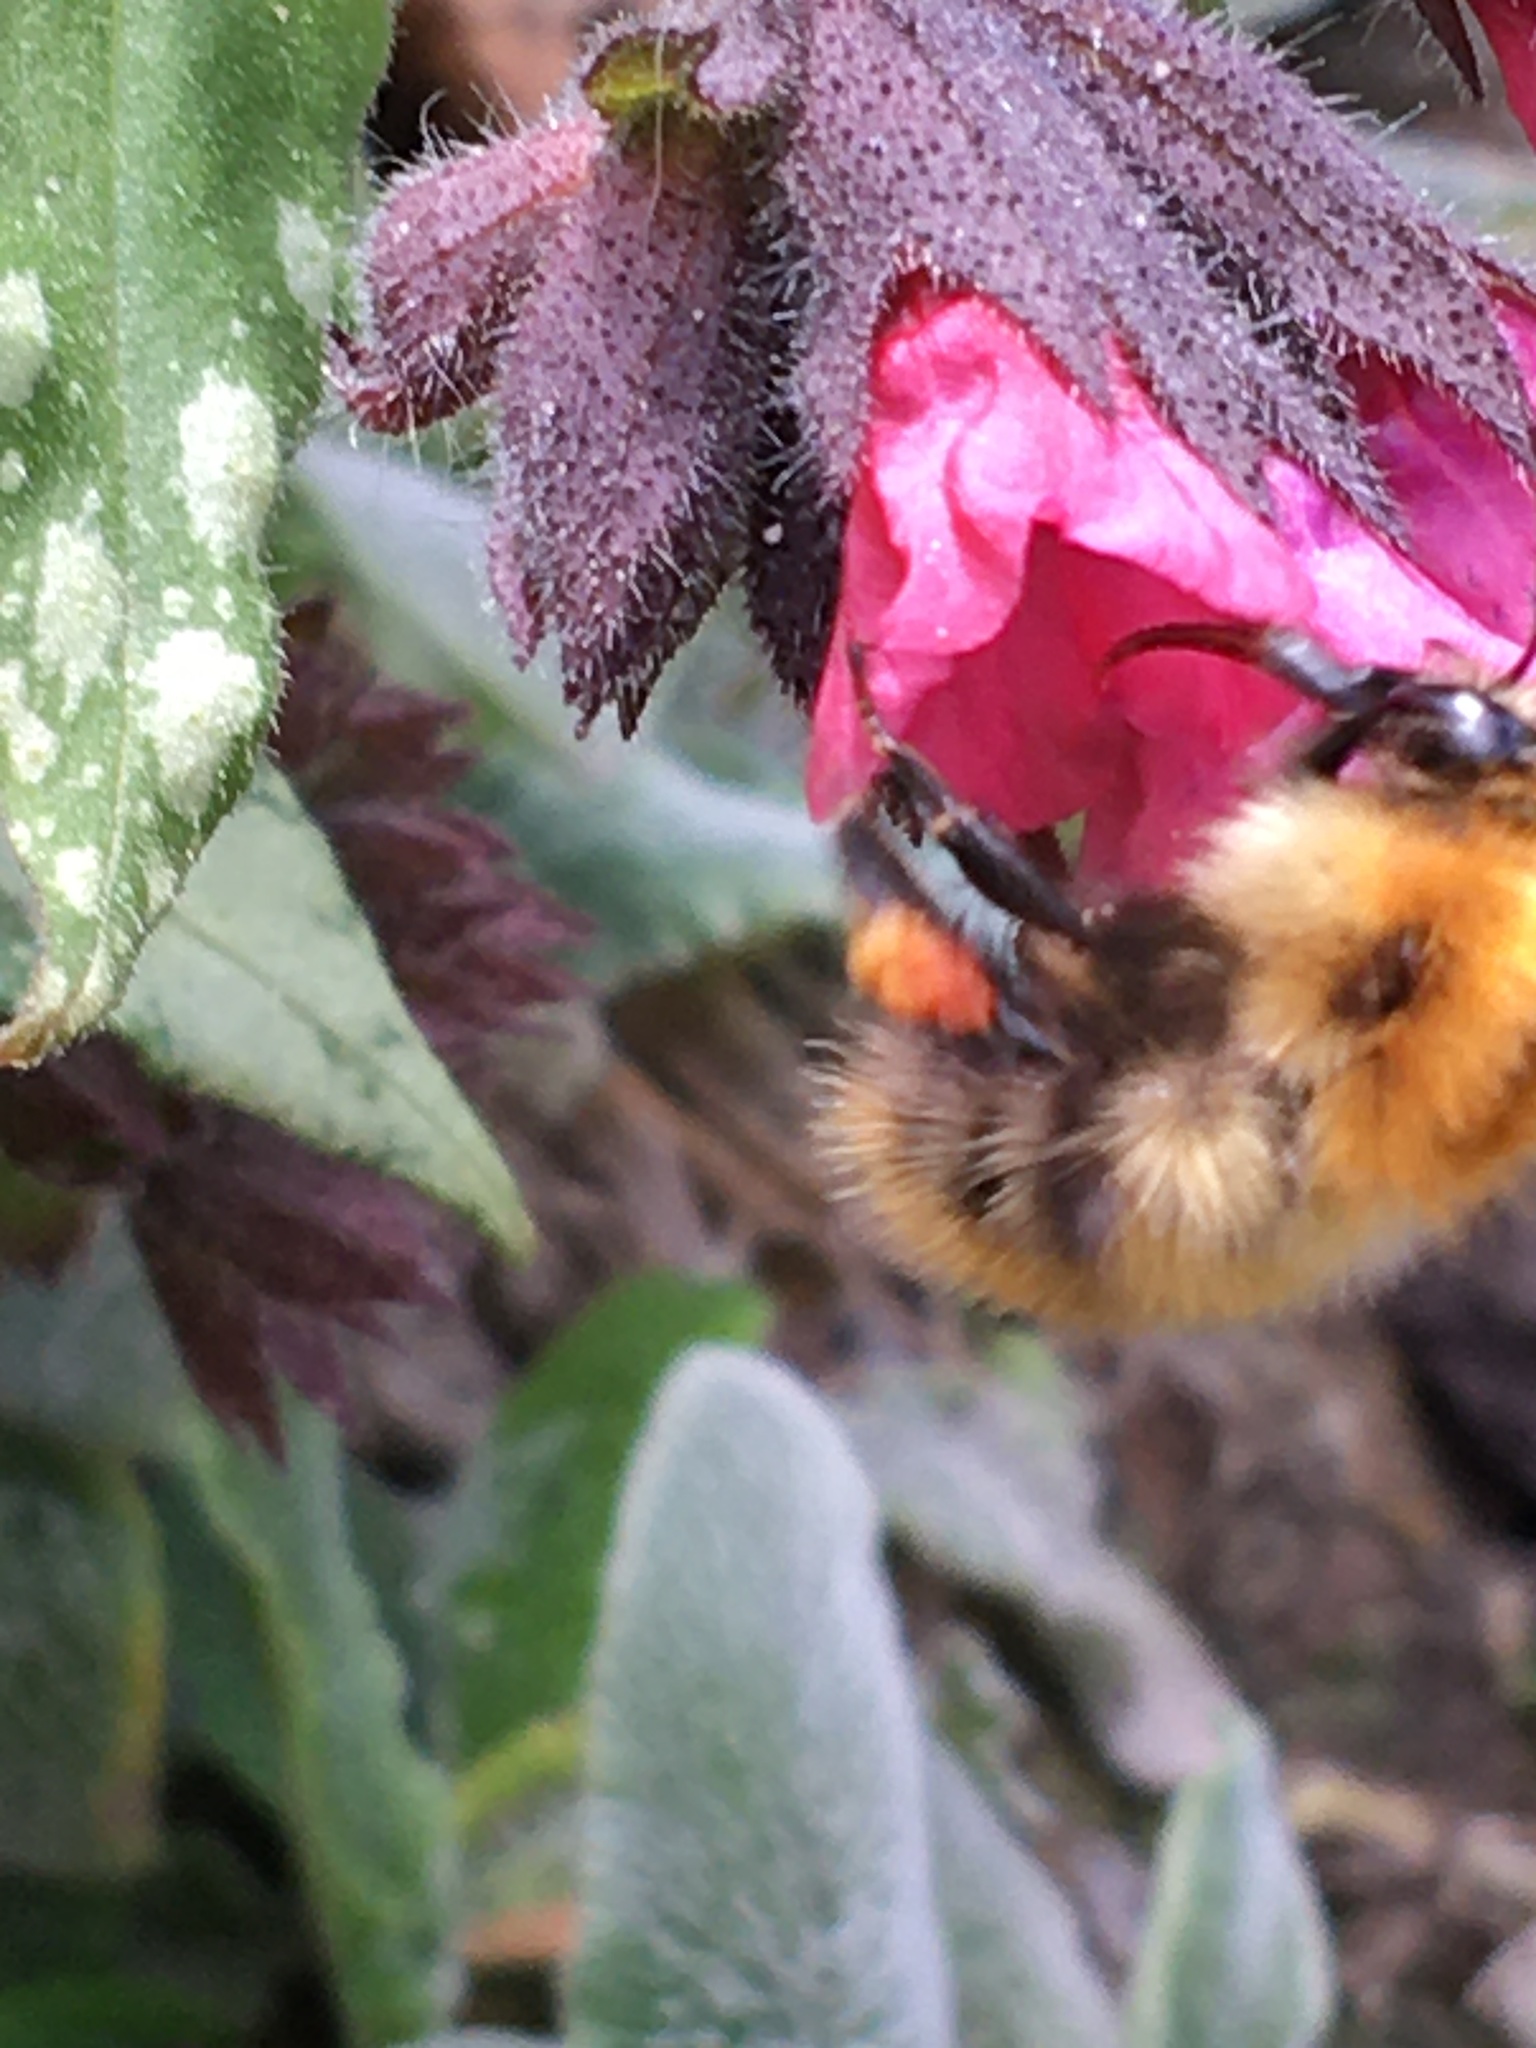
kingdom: Animalia
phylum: Arthropoda
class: Insecta
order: Hymenoptera
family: Apidae
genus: Bombus
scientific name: Bombus pascuorum
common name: Common carder bee
